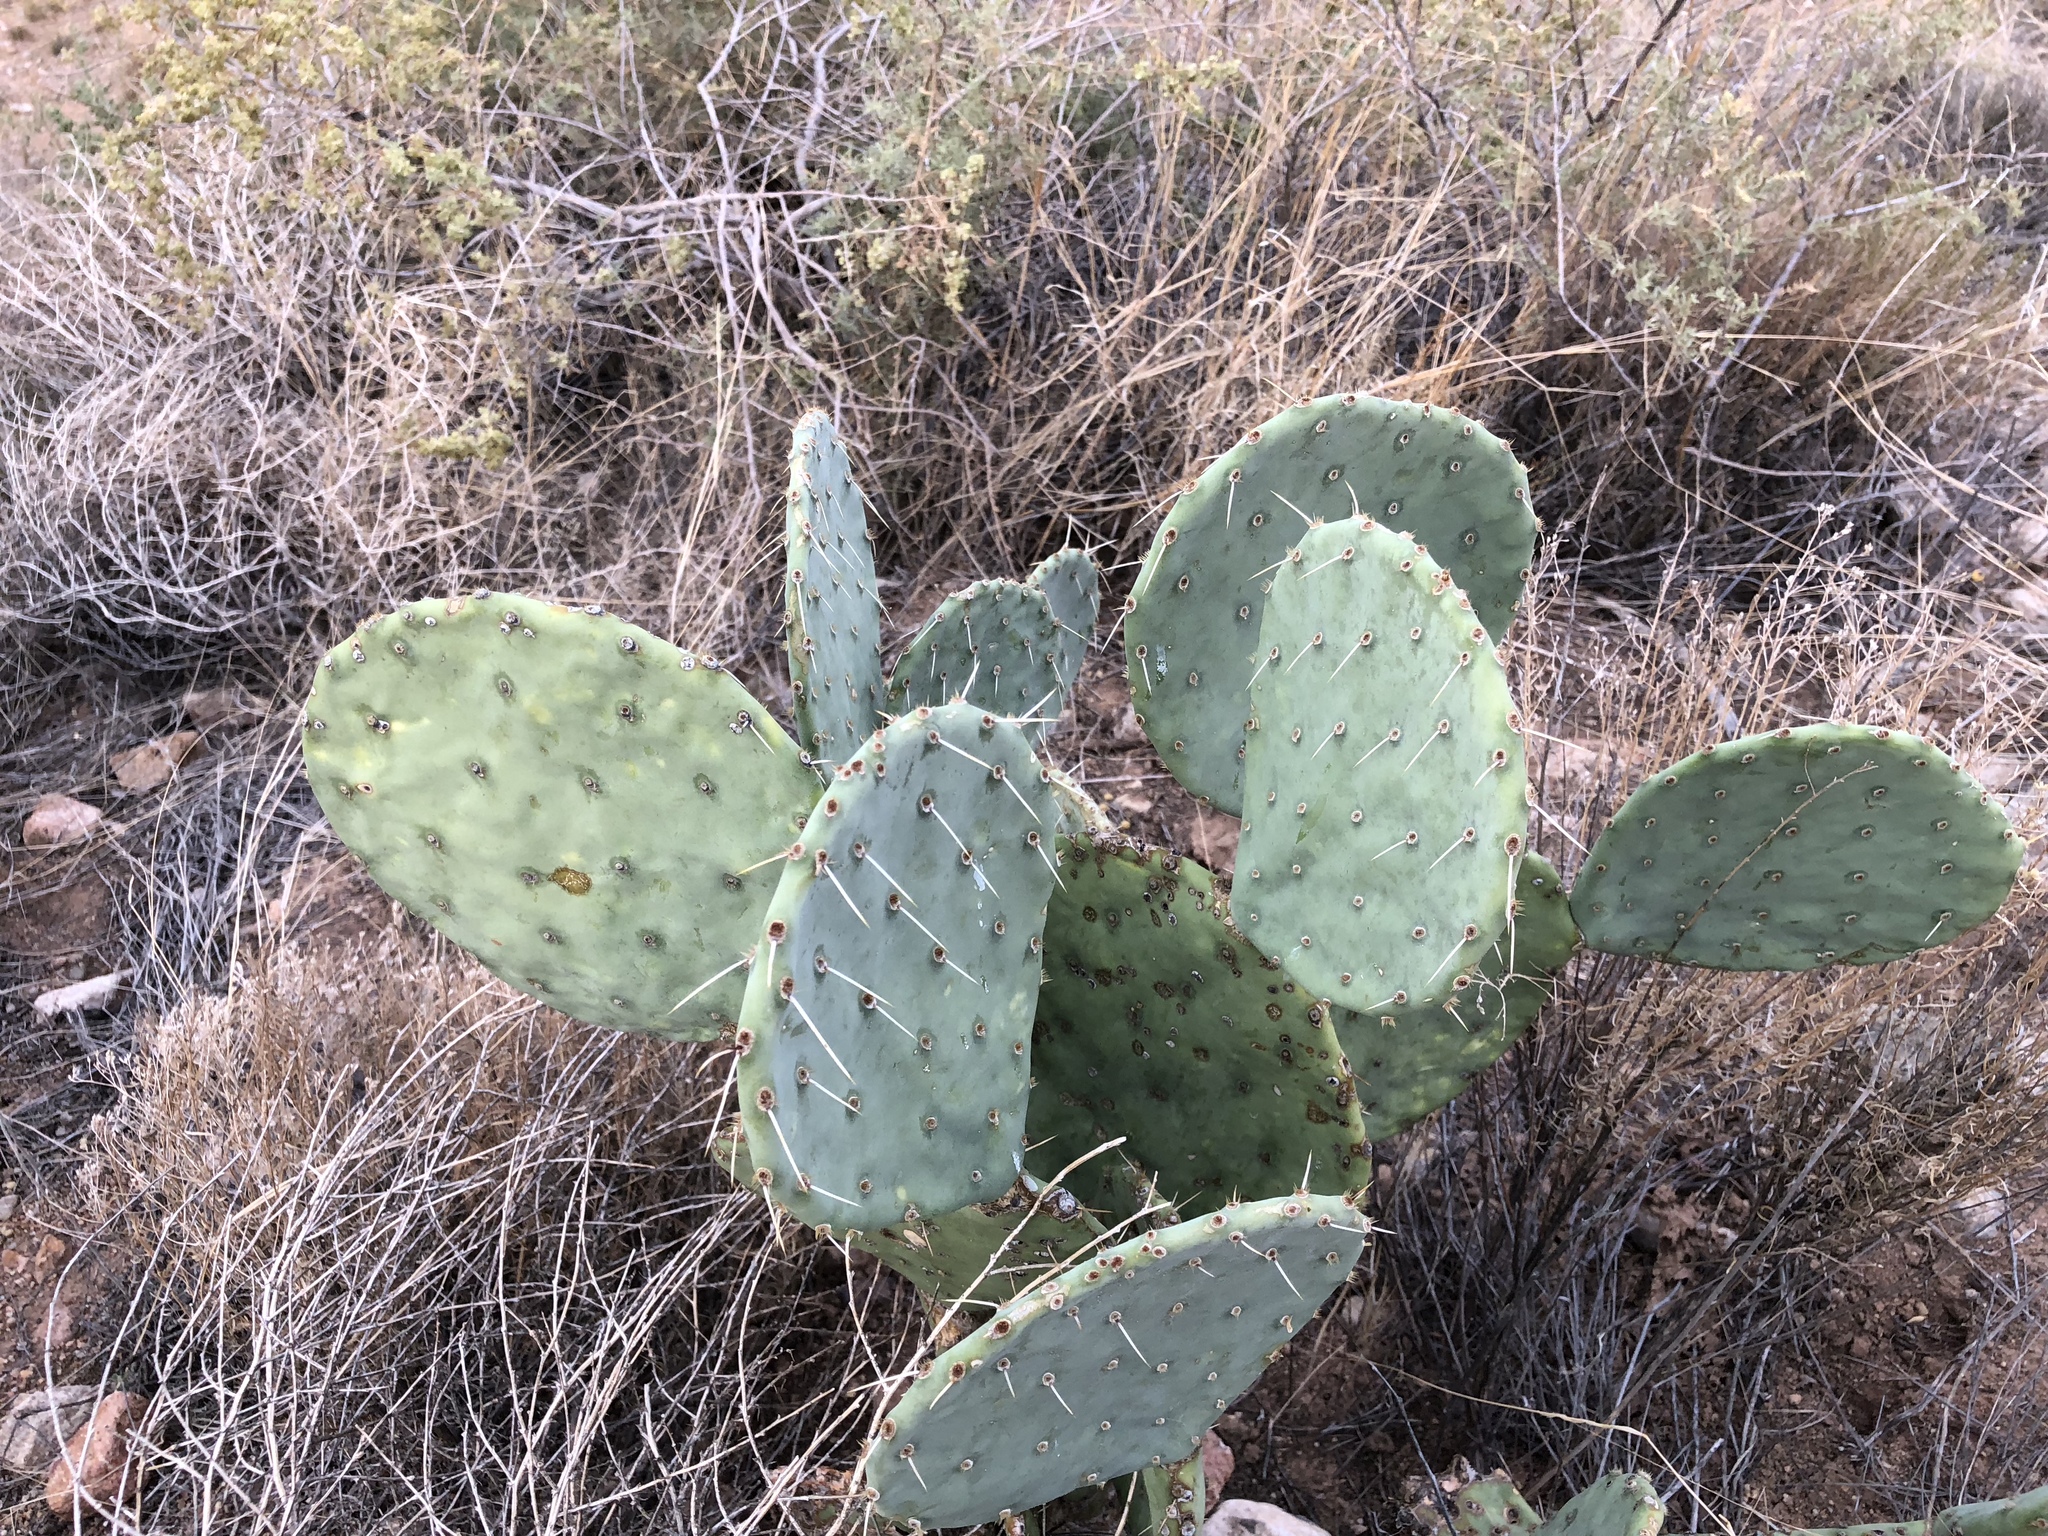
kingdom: Plantae
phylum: Tracheophyta
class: Magnoliopsida
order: Caryophyllales
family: Cactaceae
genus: Opuntia
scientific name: Opuntia orbiculata
